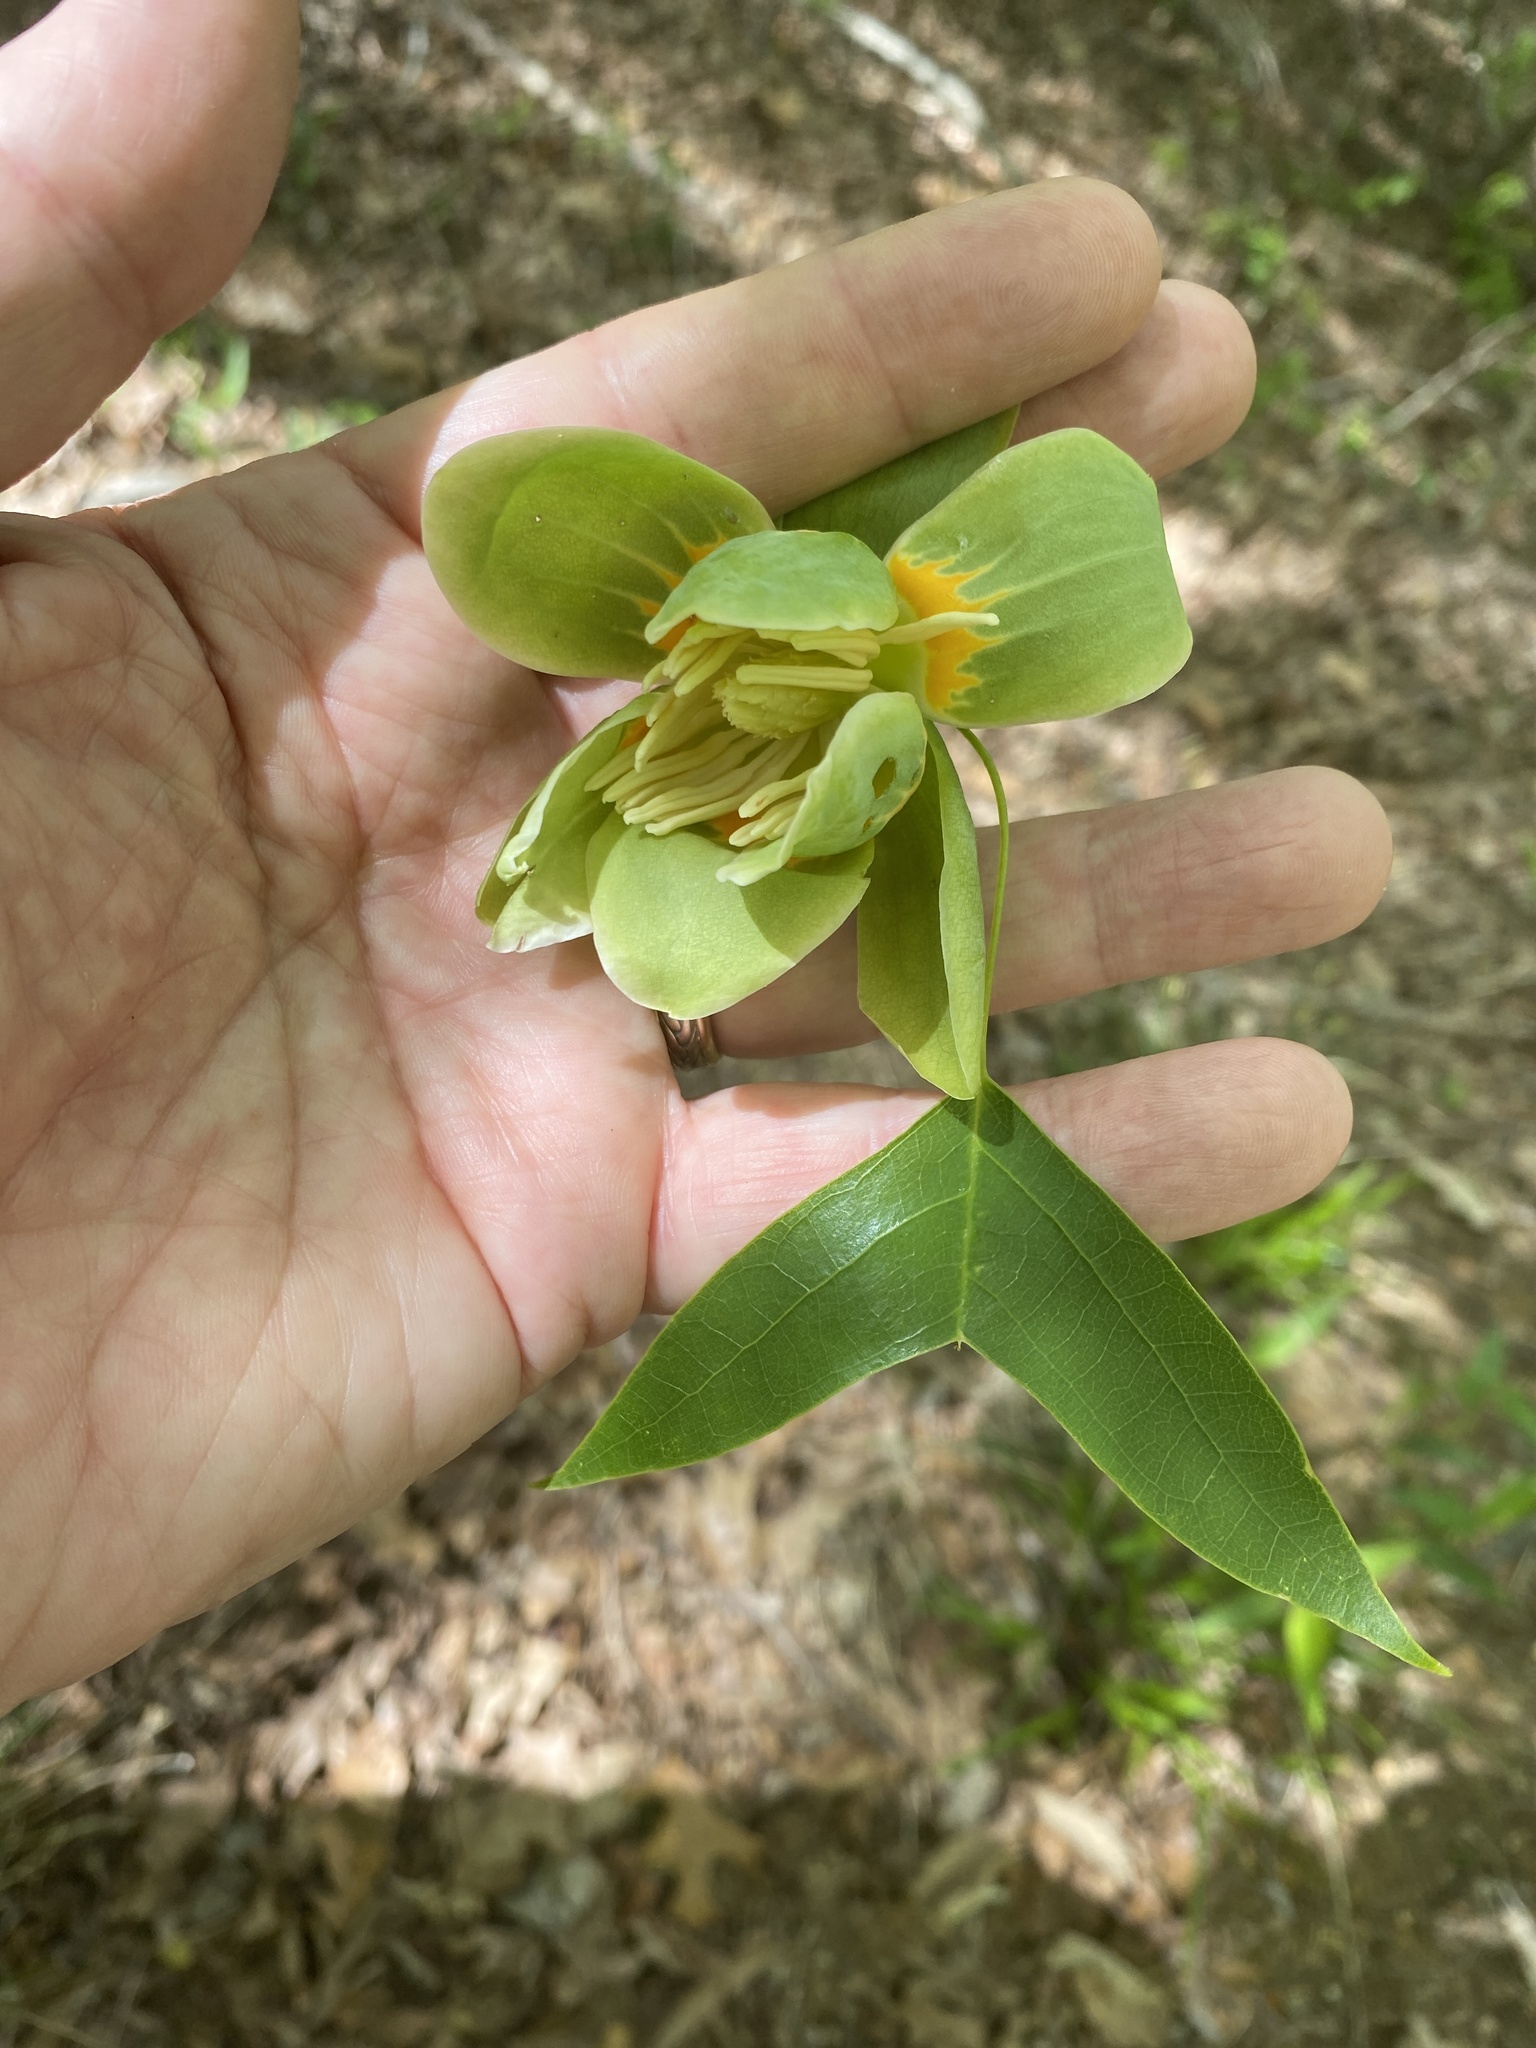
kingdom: Plantae
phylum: Tracheophyta
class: Magnoliopsida
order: Magnoliales
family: Magnoliaceae
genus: Liriodendron
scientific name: Liriodendron tulipifera
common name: Tulip tree
